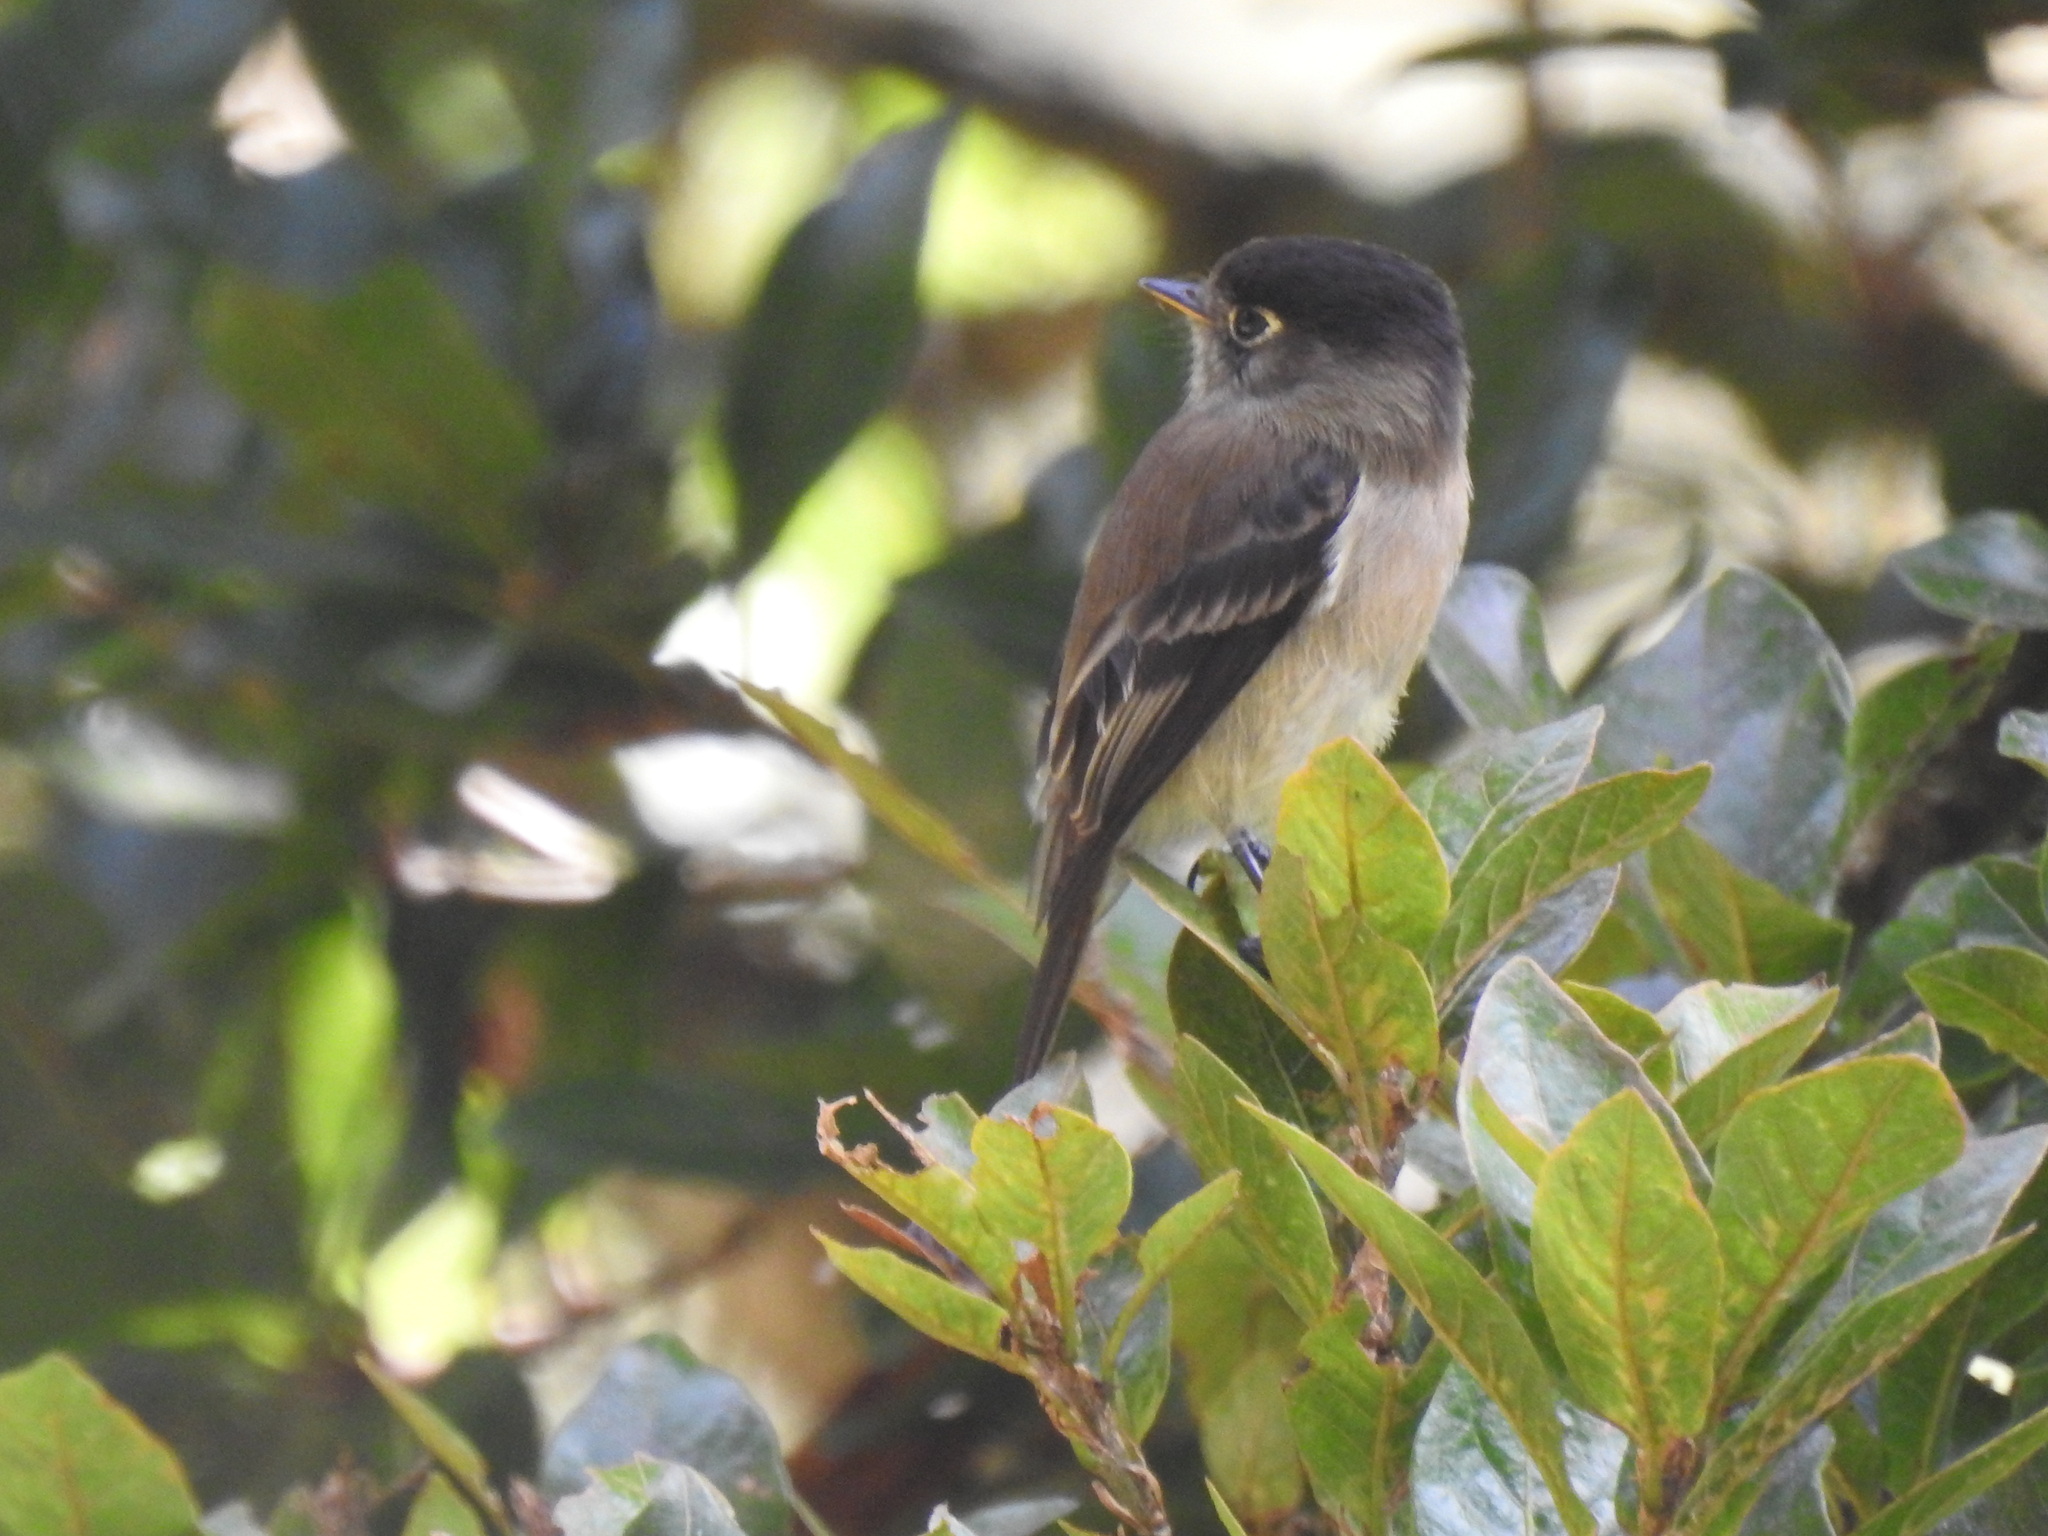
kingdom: Animalia
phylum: Chordata
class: Aves
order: Passeriformes
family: Tyrannidae
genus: Empidonax
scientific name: Empidonax atriceps
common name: Black-capped flycatcher
